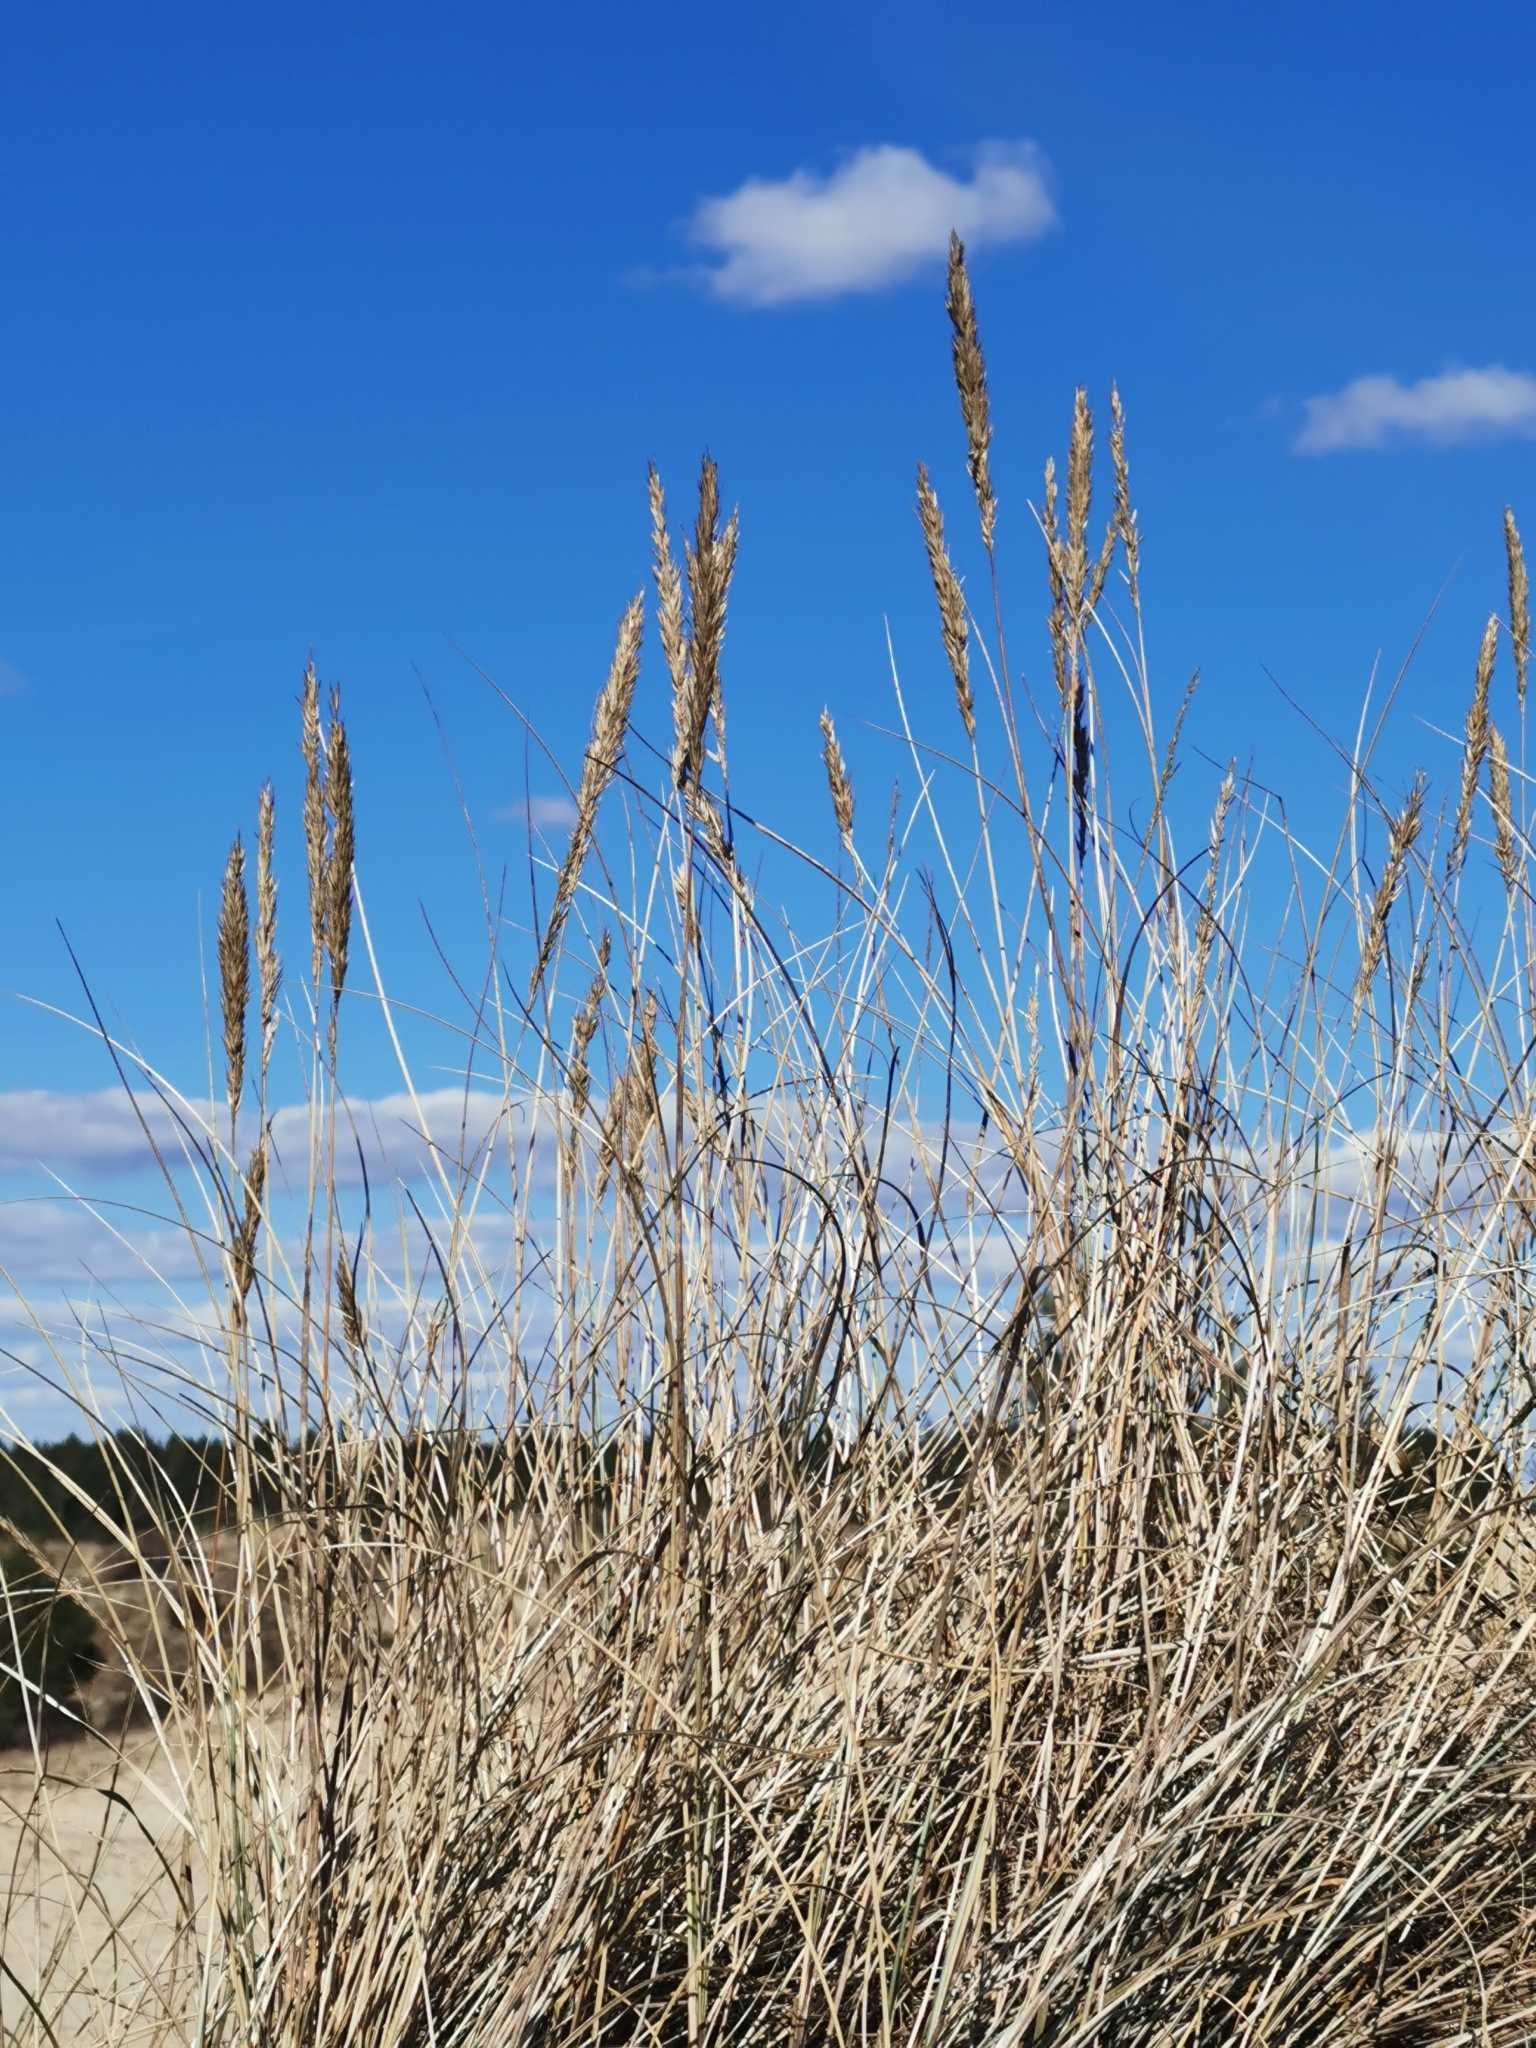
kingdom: Plantae
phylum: Tracheophyta
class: Liliopsida
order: Poales
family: Poaceae
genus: Calamagrostis
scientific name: Calamagrostis arenaria
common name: European beachgrass
